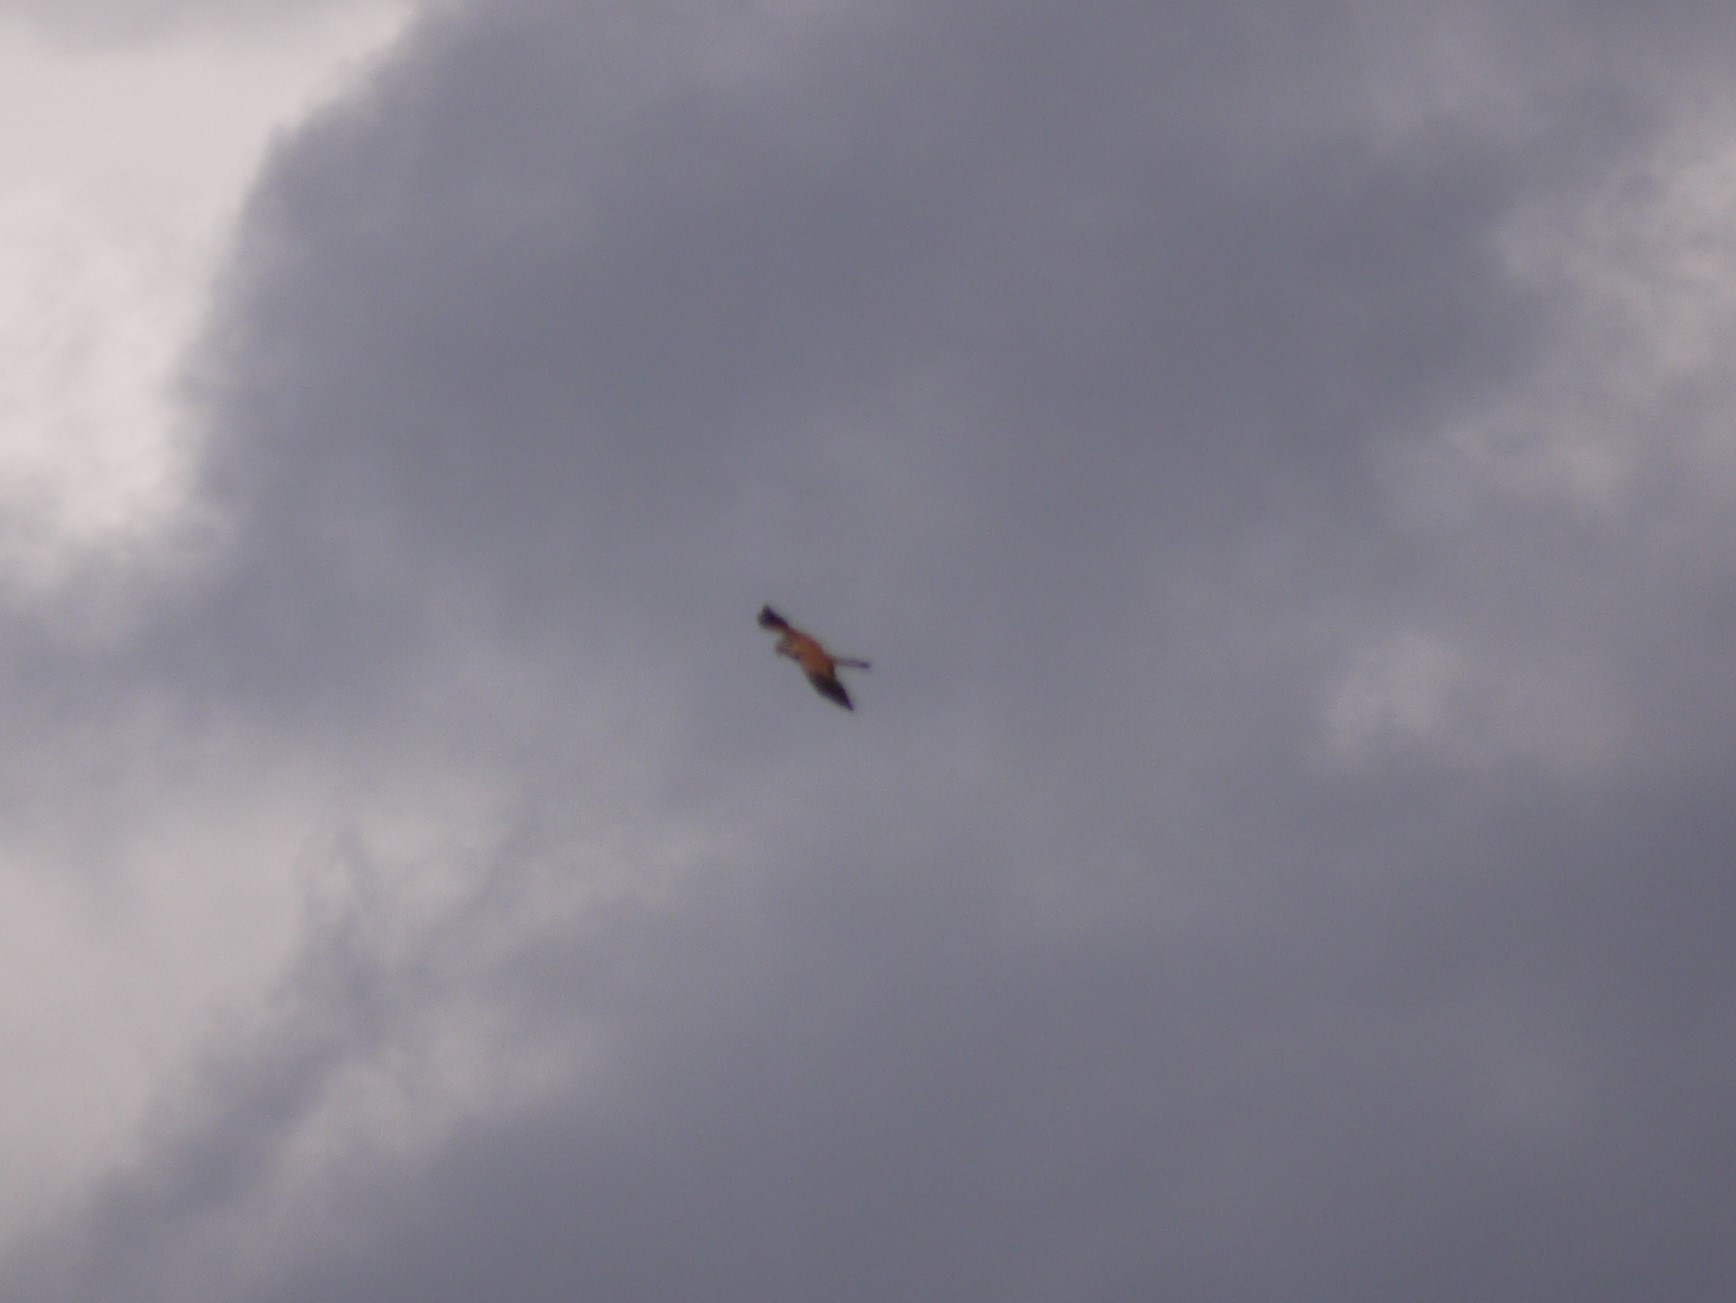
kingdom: Animalia
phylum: Chordata
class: Aves
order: Falconiformes
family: Falconidae
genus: Falco
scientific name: Falco tinnunculus
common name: Common kestrel
